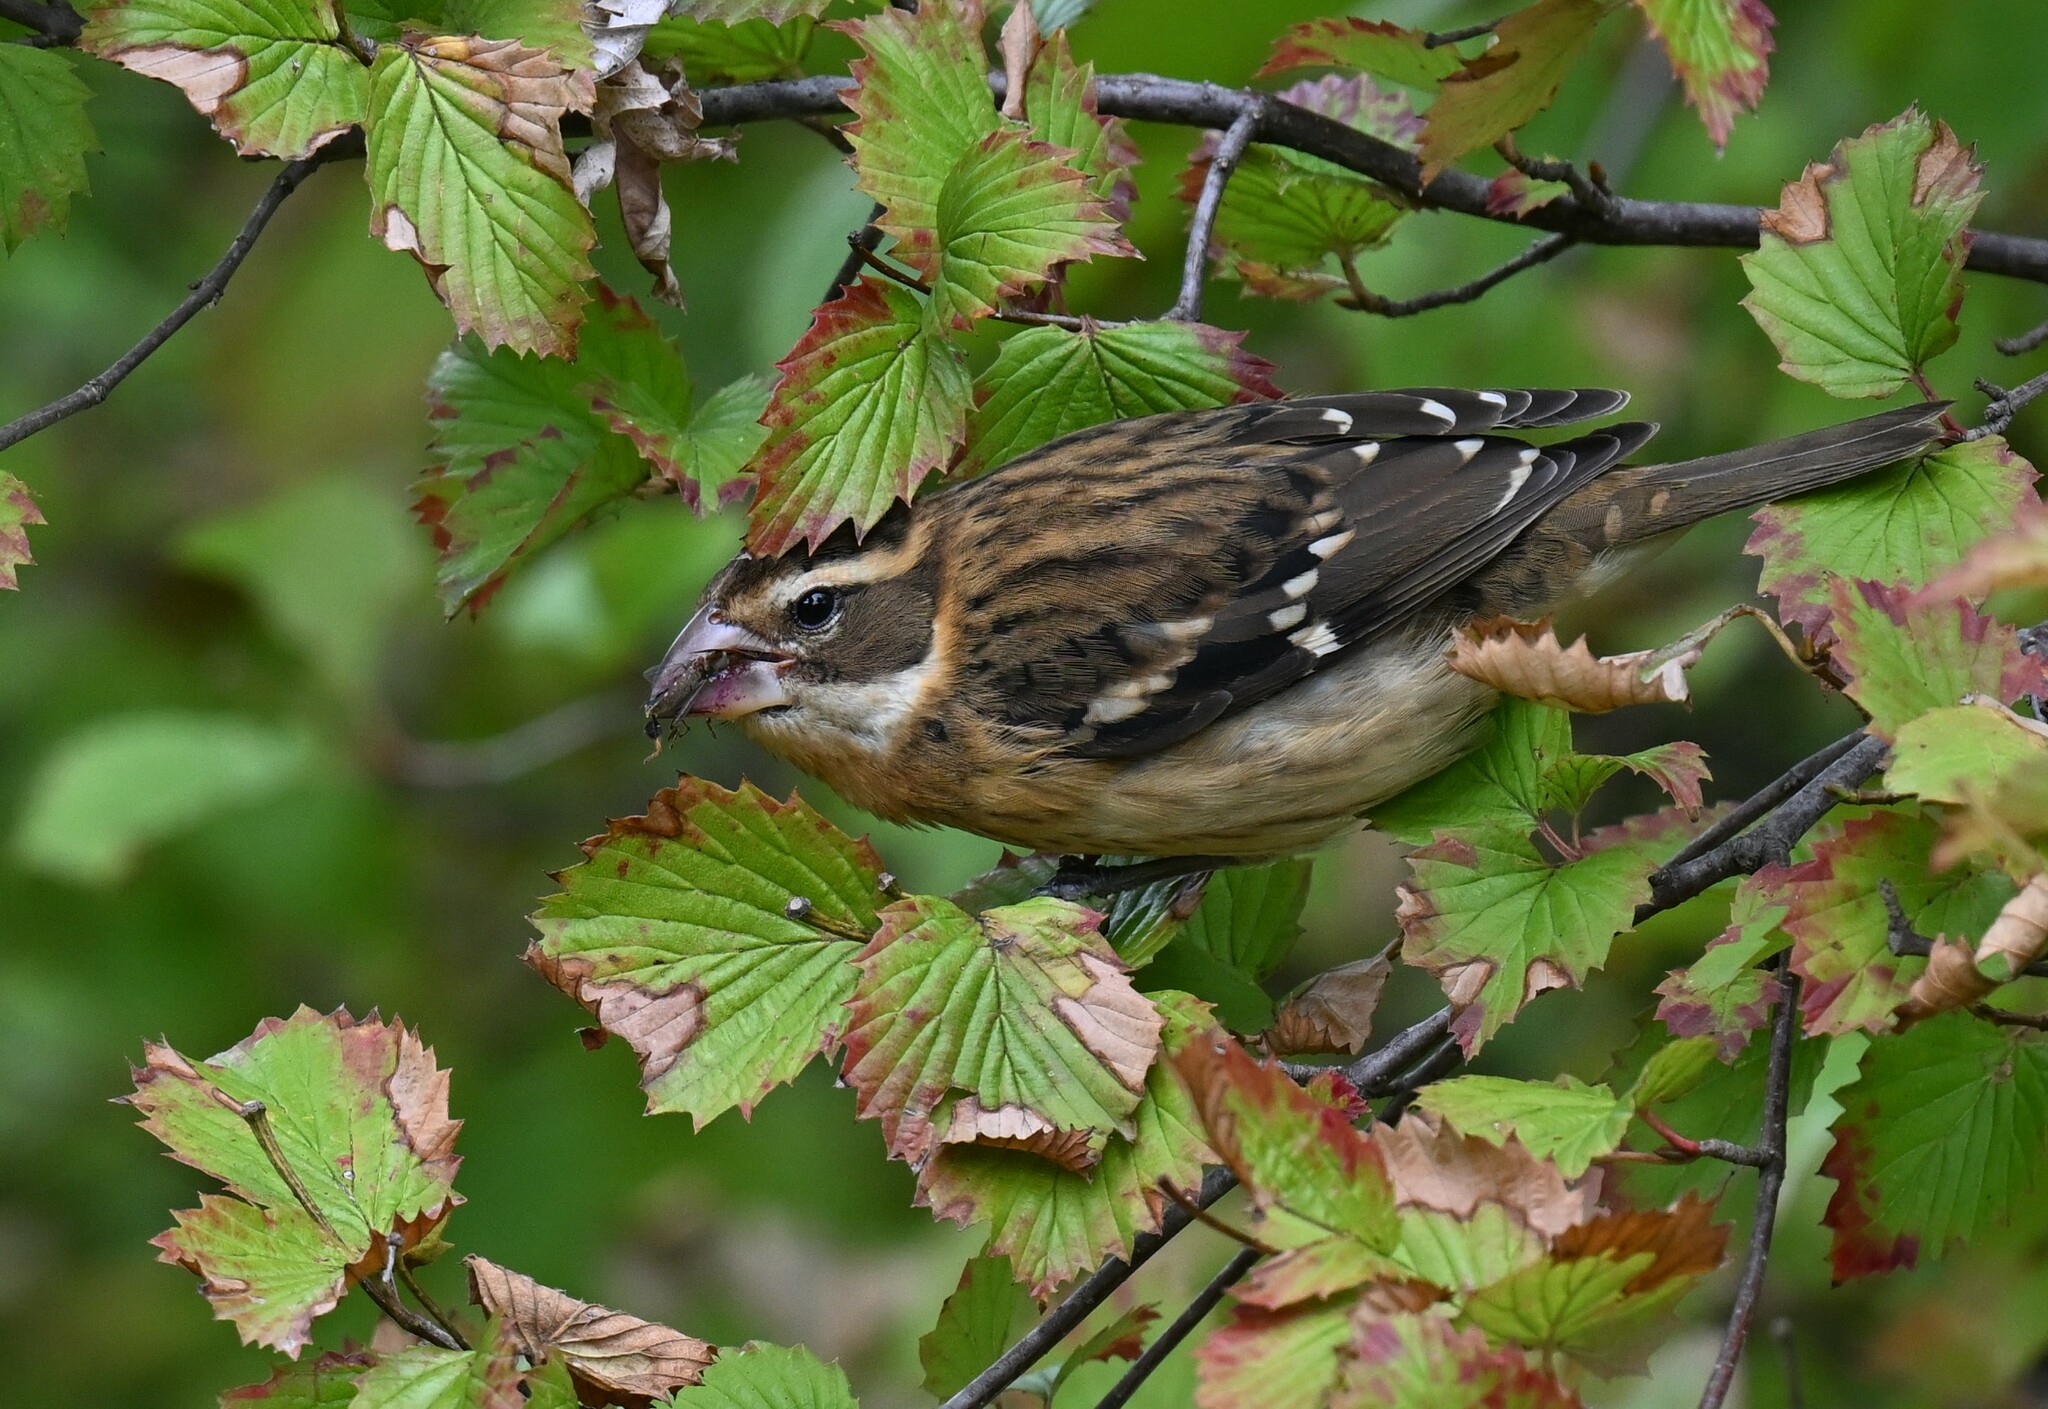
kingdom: Animalia
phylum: Chordata
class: Aves
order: Passeriformes
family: Cardinalidae
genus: Pheucticus
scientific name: Pheucticus ludovicianus
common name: Rose-breasted grosbeak
